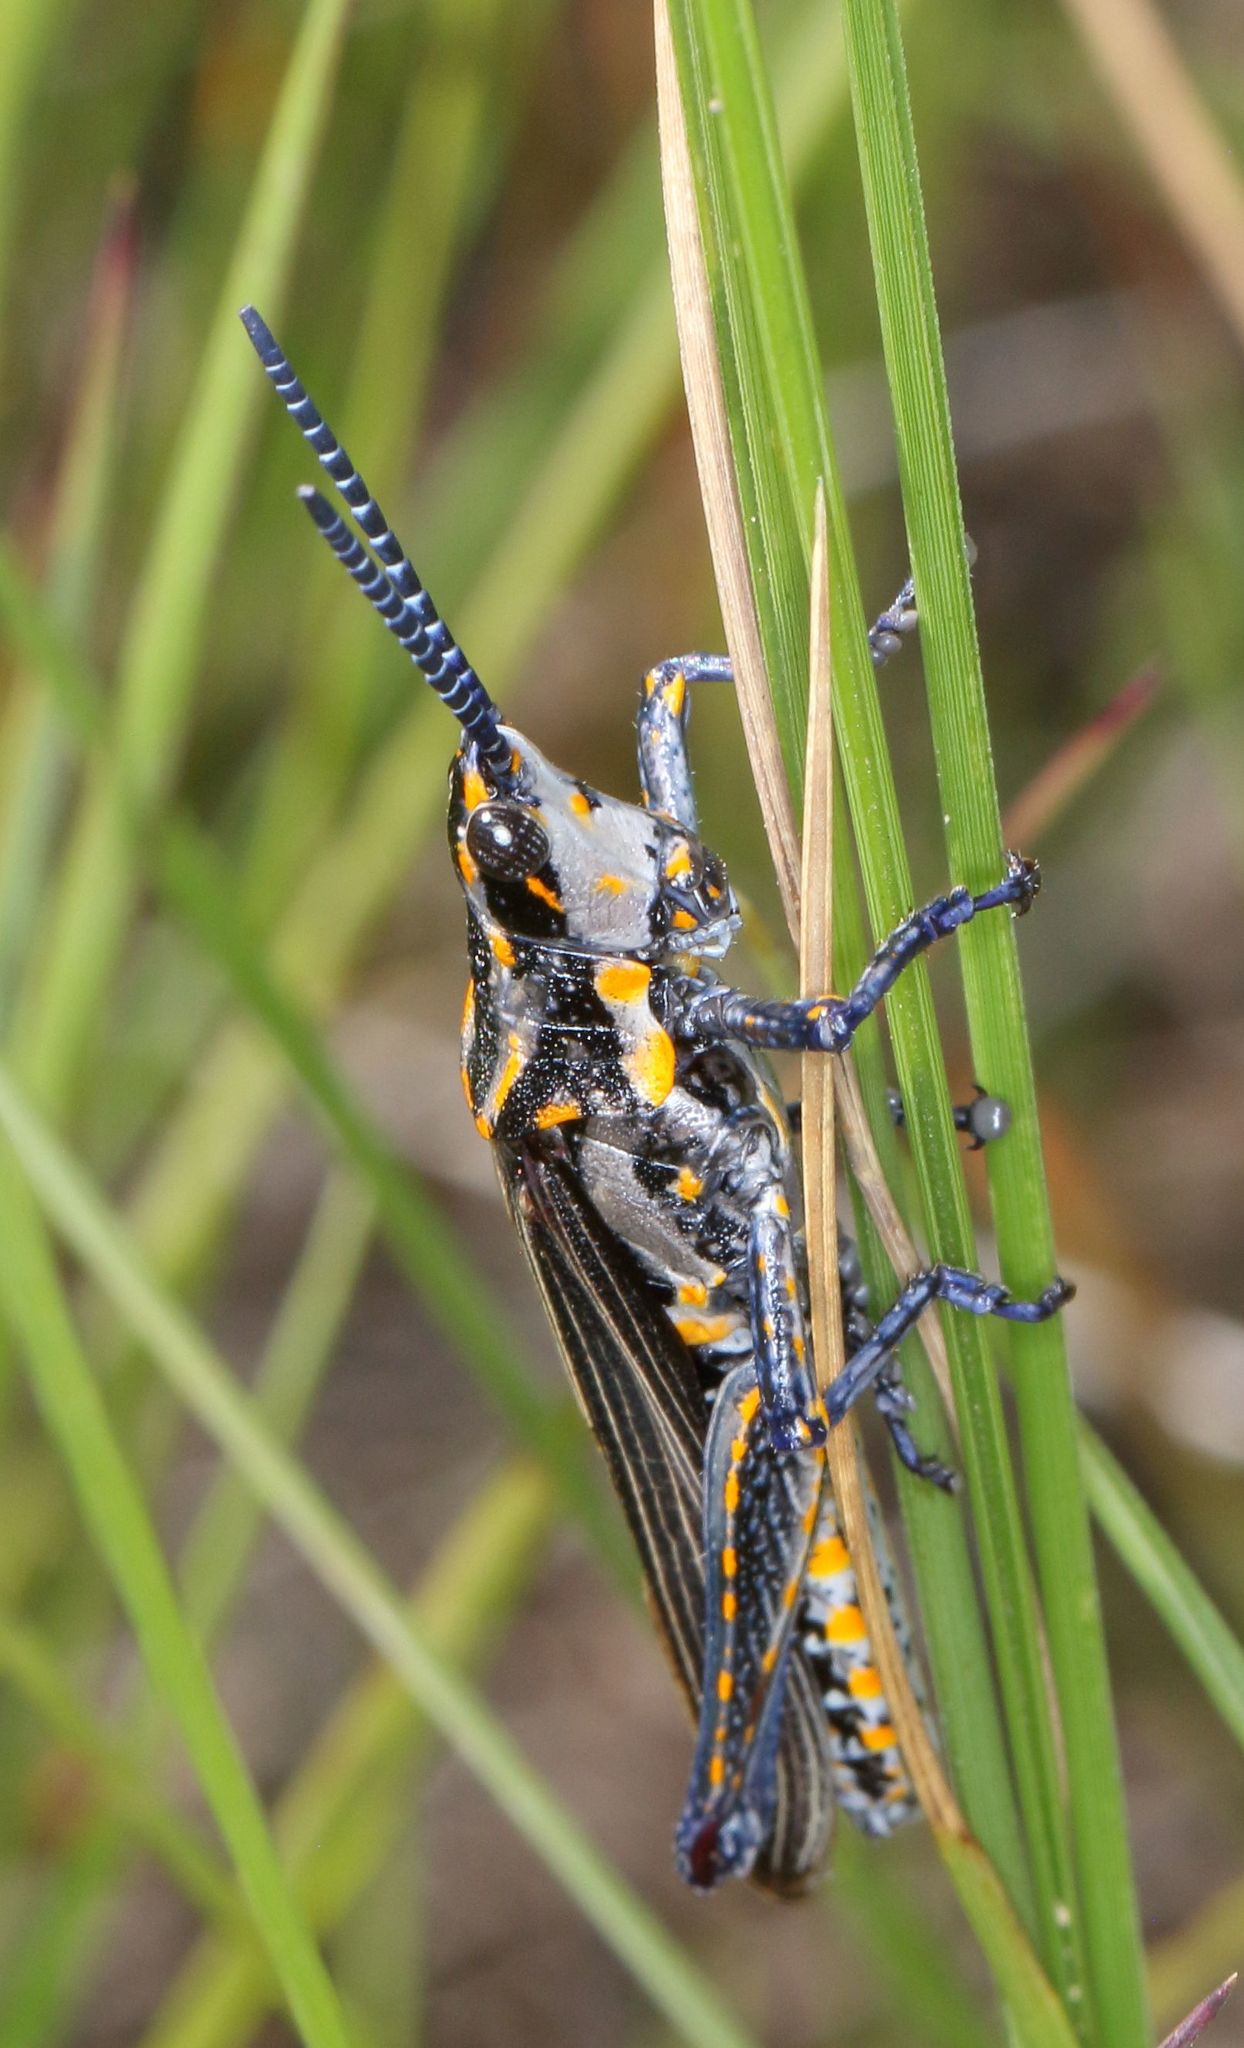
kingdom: Animalia
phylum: Arthropoda
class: Insecta
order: Orthoptera
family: Pyrgomorphidae
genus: Ochrophlebia
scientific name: Ochrophlebia cafra
